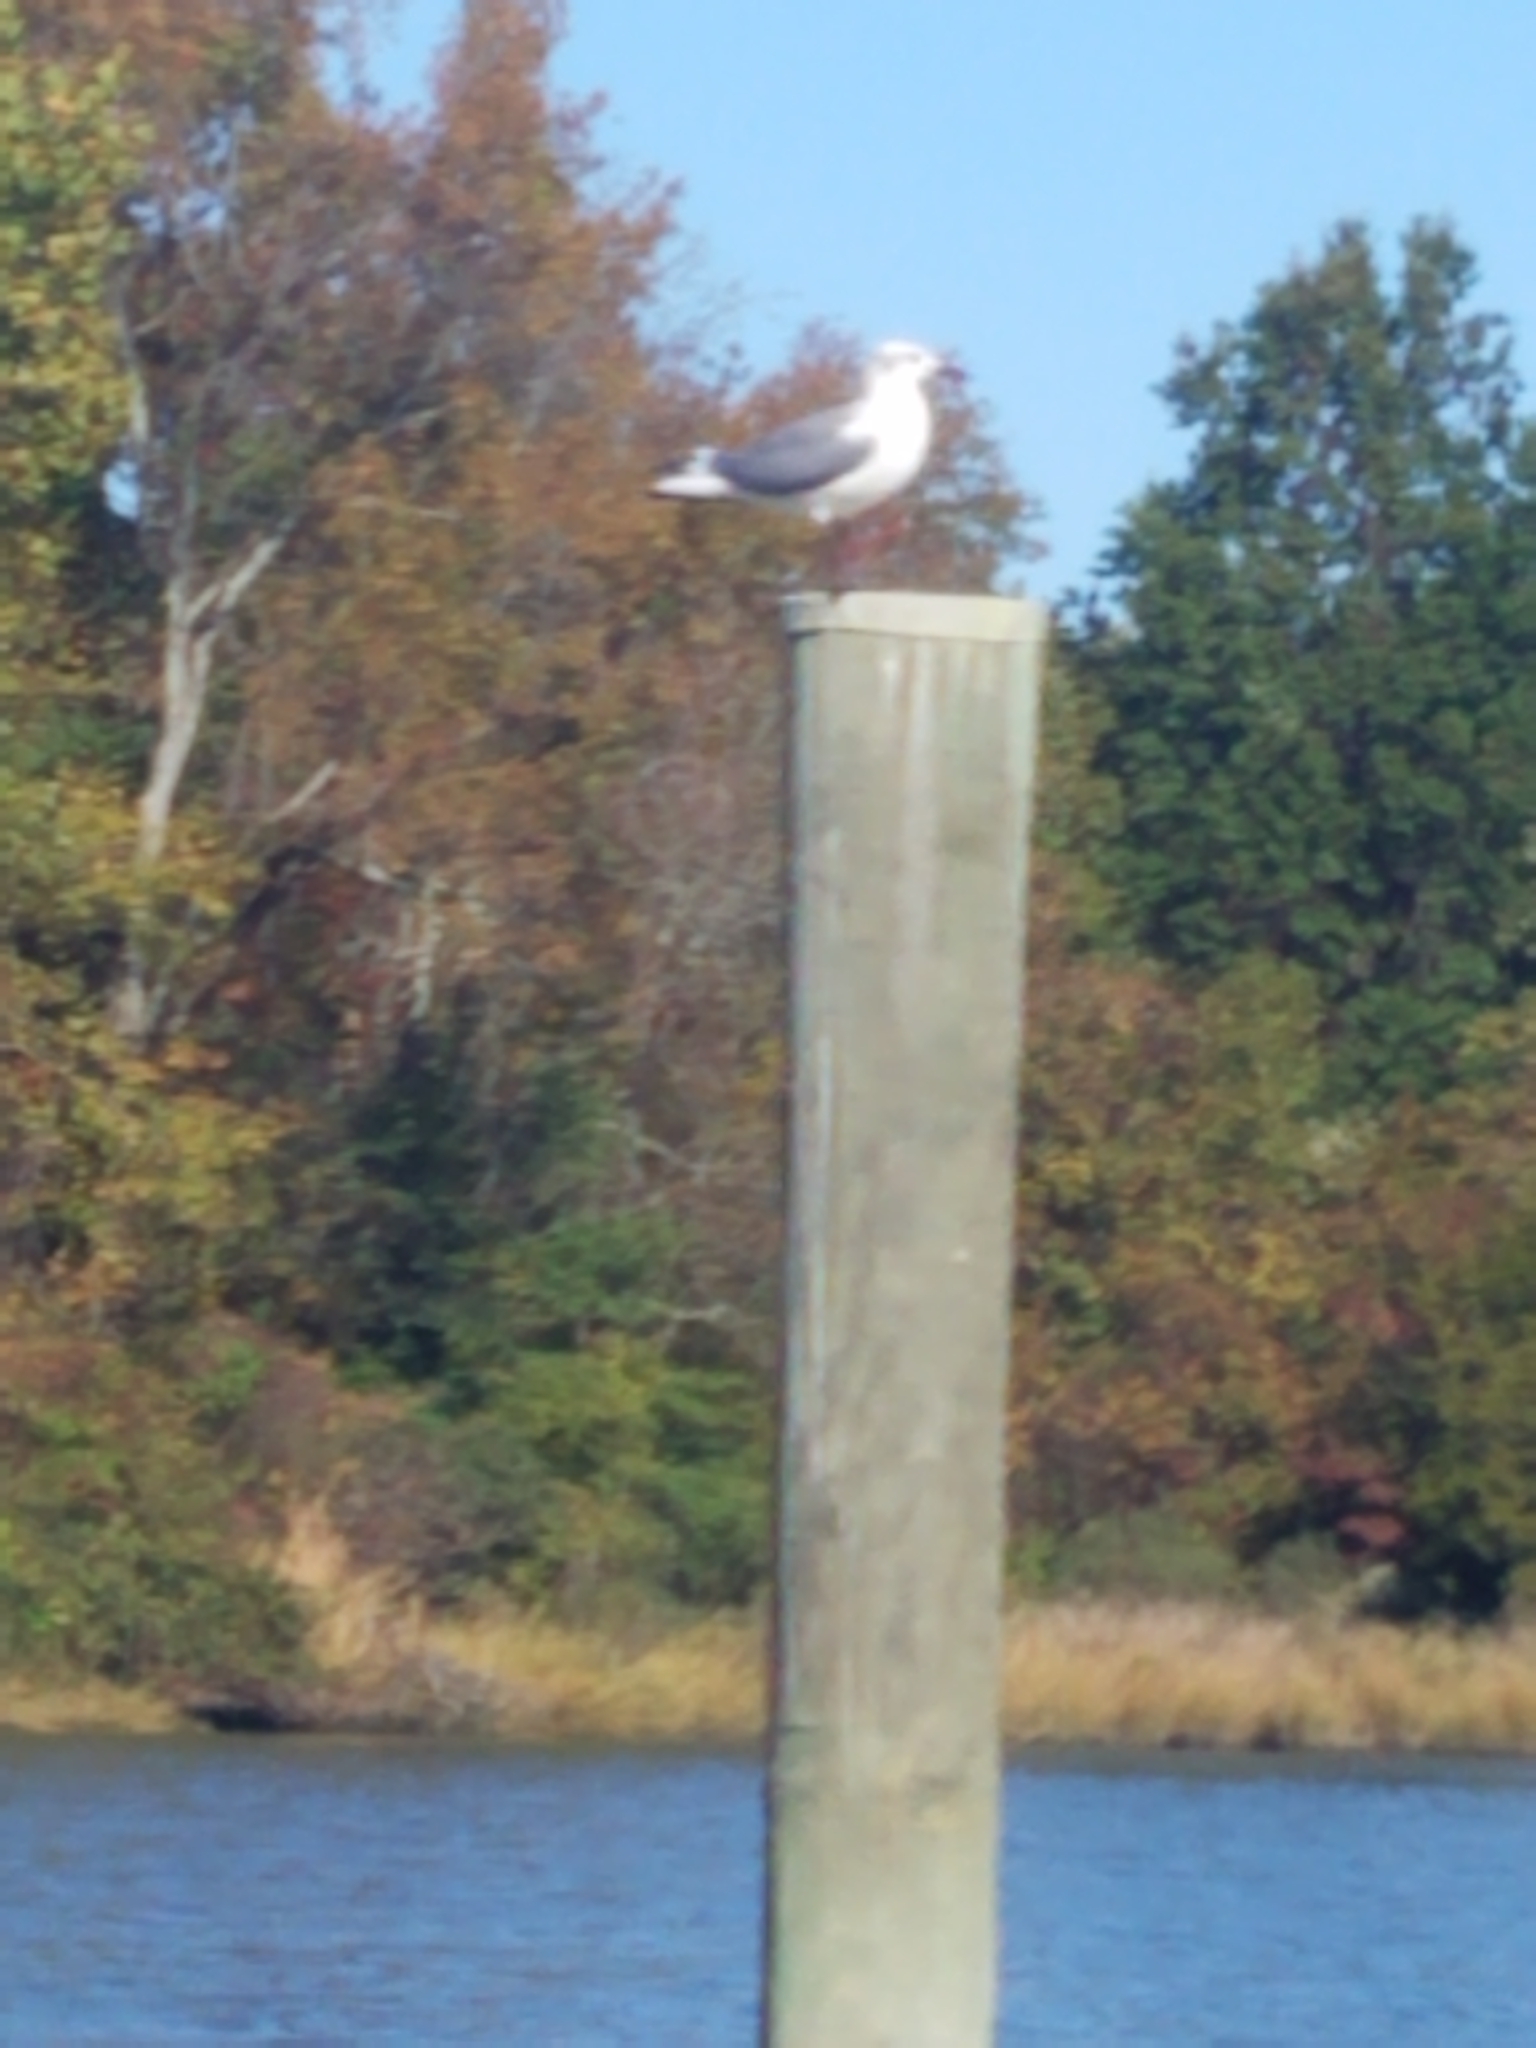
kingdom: Animalia
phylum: Chordata
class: Aves
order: Charadriiformes
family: Laridae
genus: Leucophaeus
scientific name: Leucophaeus atricilla
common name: Laughing gull
